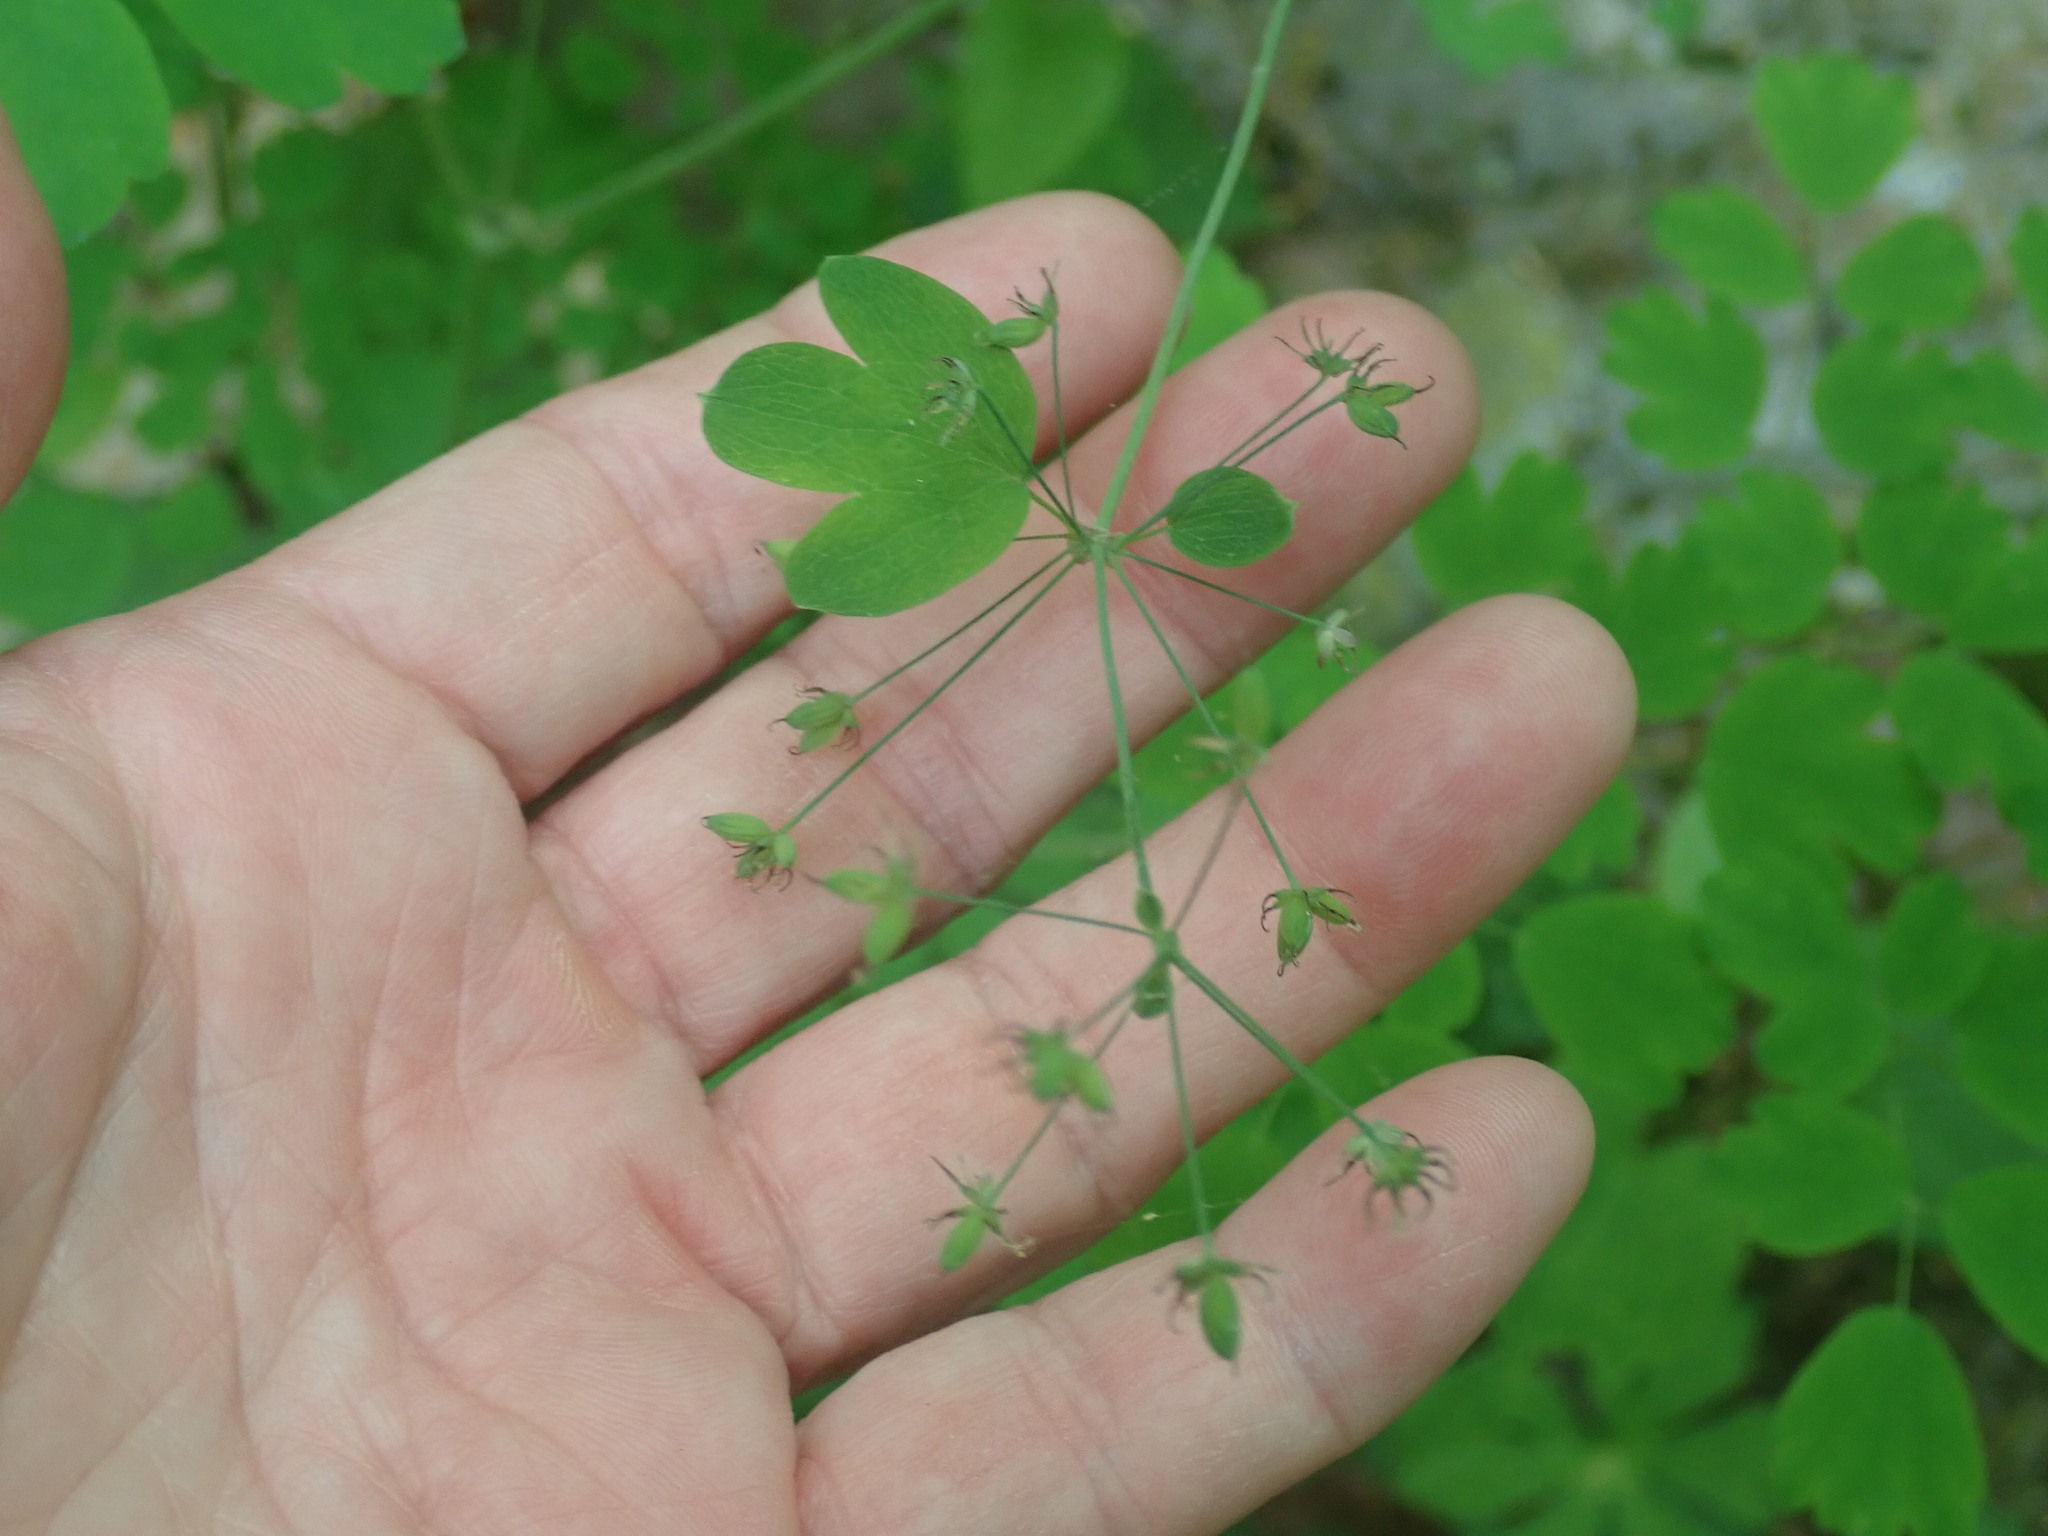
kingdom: Plantae
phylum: Tracheophyta
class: Magnoliopsida
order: Ranunculales
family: Ranunculaceae
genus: Thalictrum
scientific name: Thalictrum dioicum
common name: Early meadow-rue
